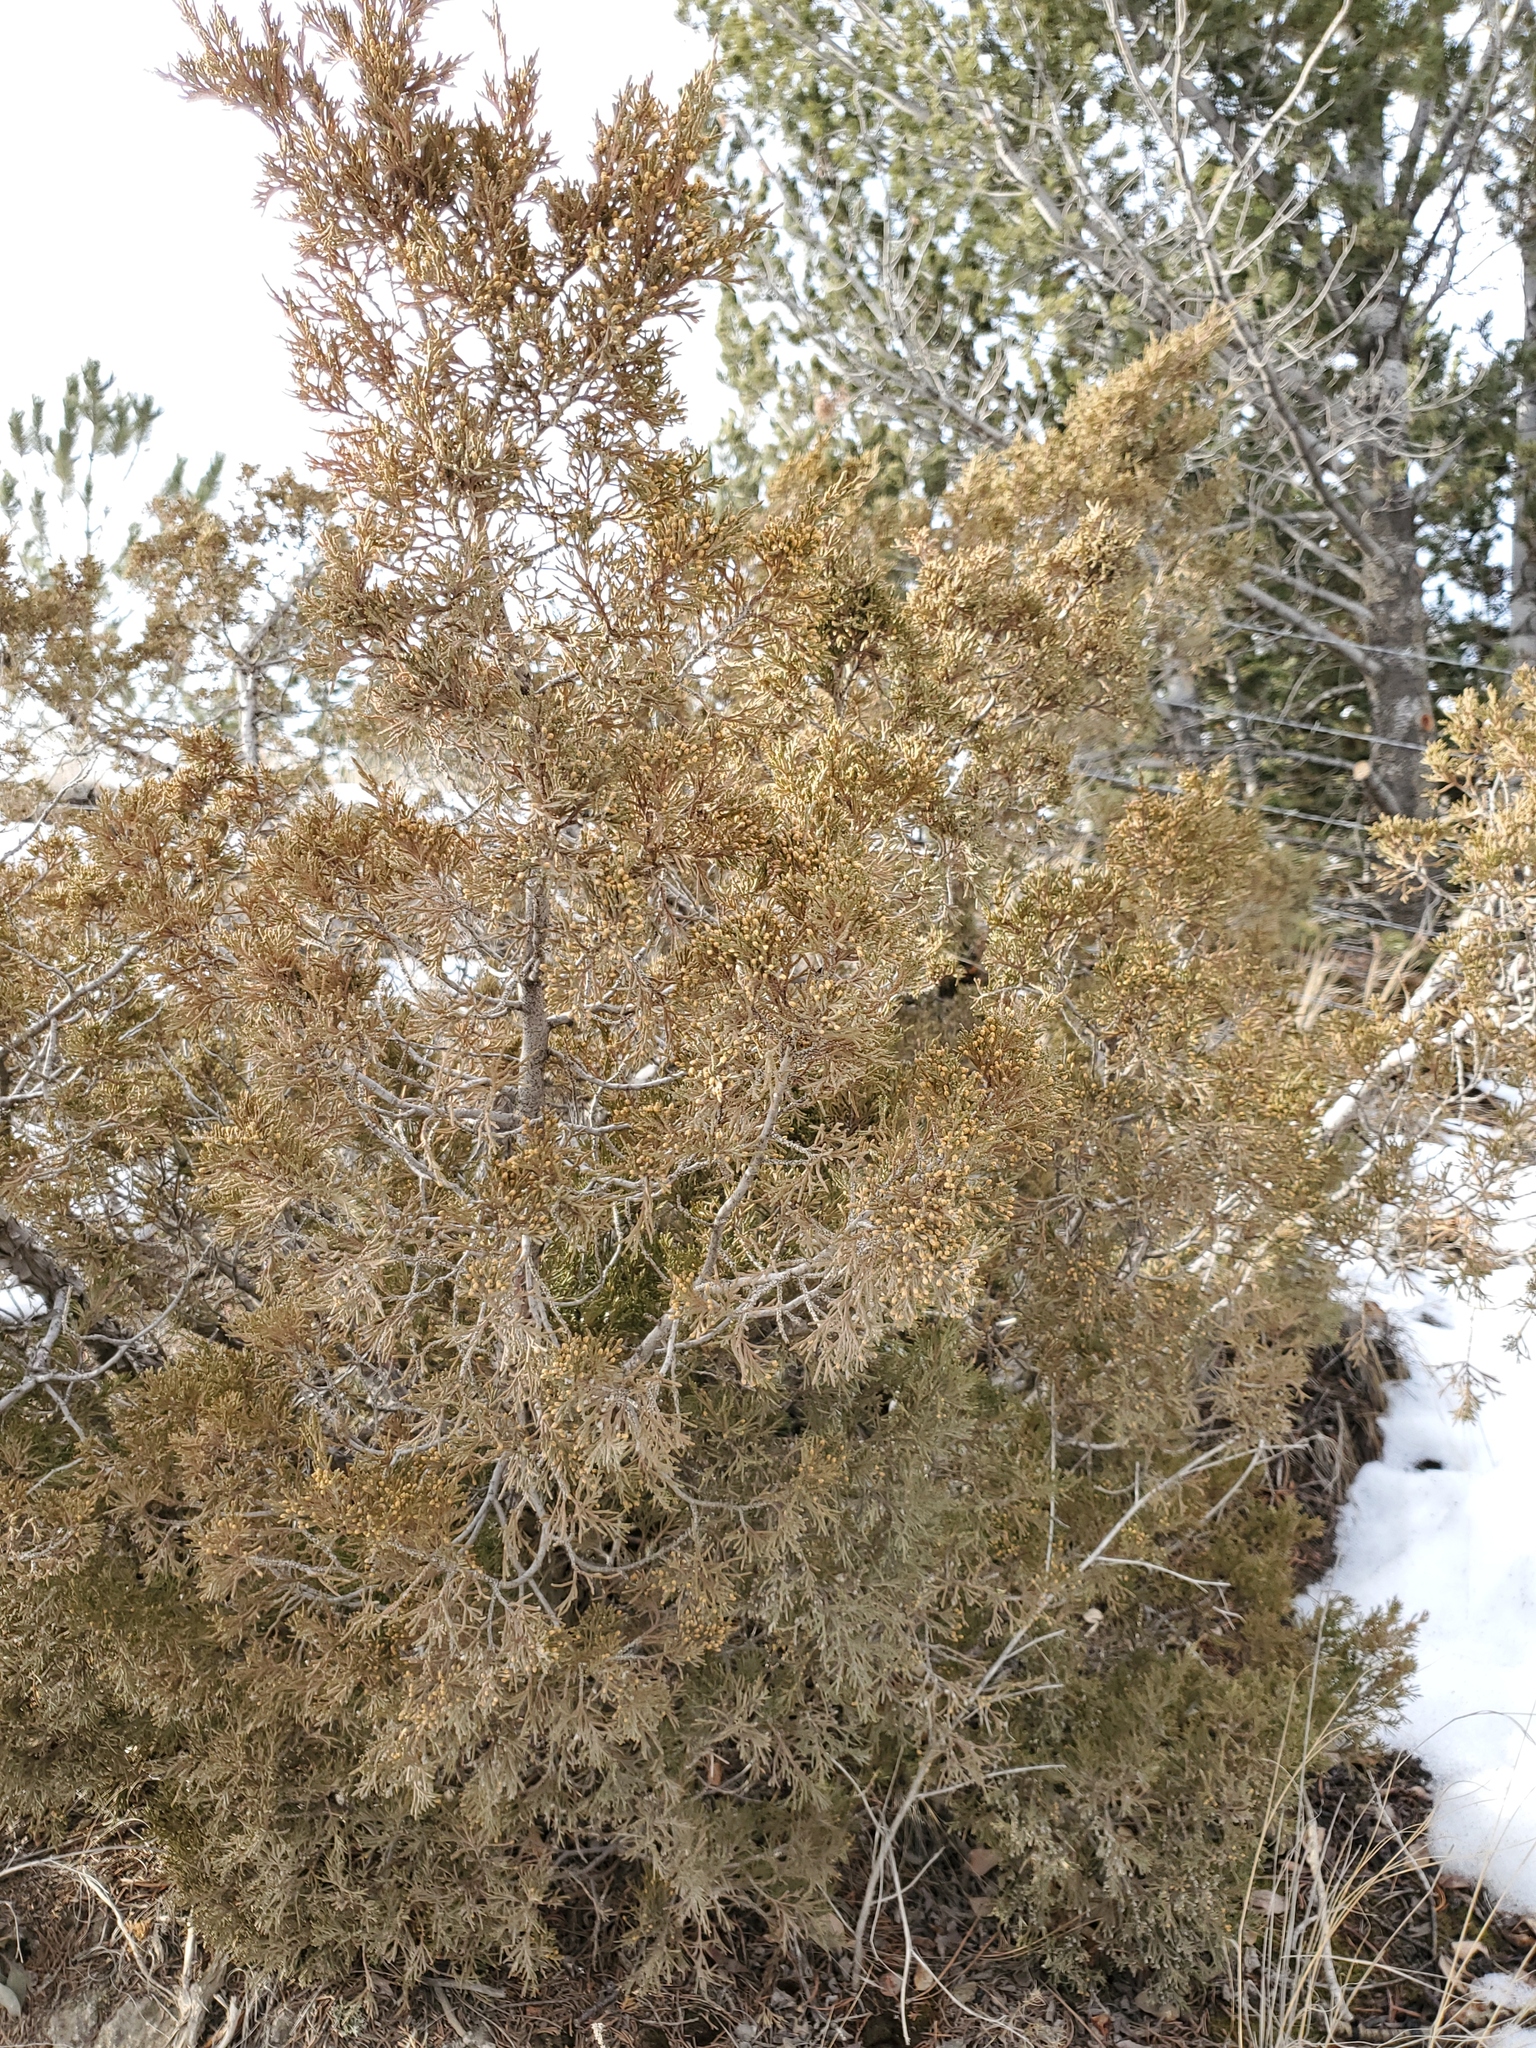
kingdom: Plantae
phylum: Tracheophyta
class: Pinopsida
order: Pinales
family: Cupressaceae
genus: Juniperus
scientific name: Juniperus scopulorum
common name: Rocky mountain juniper
